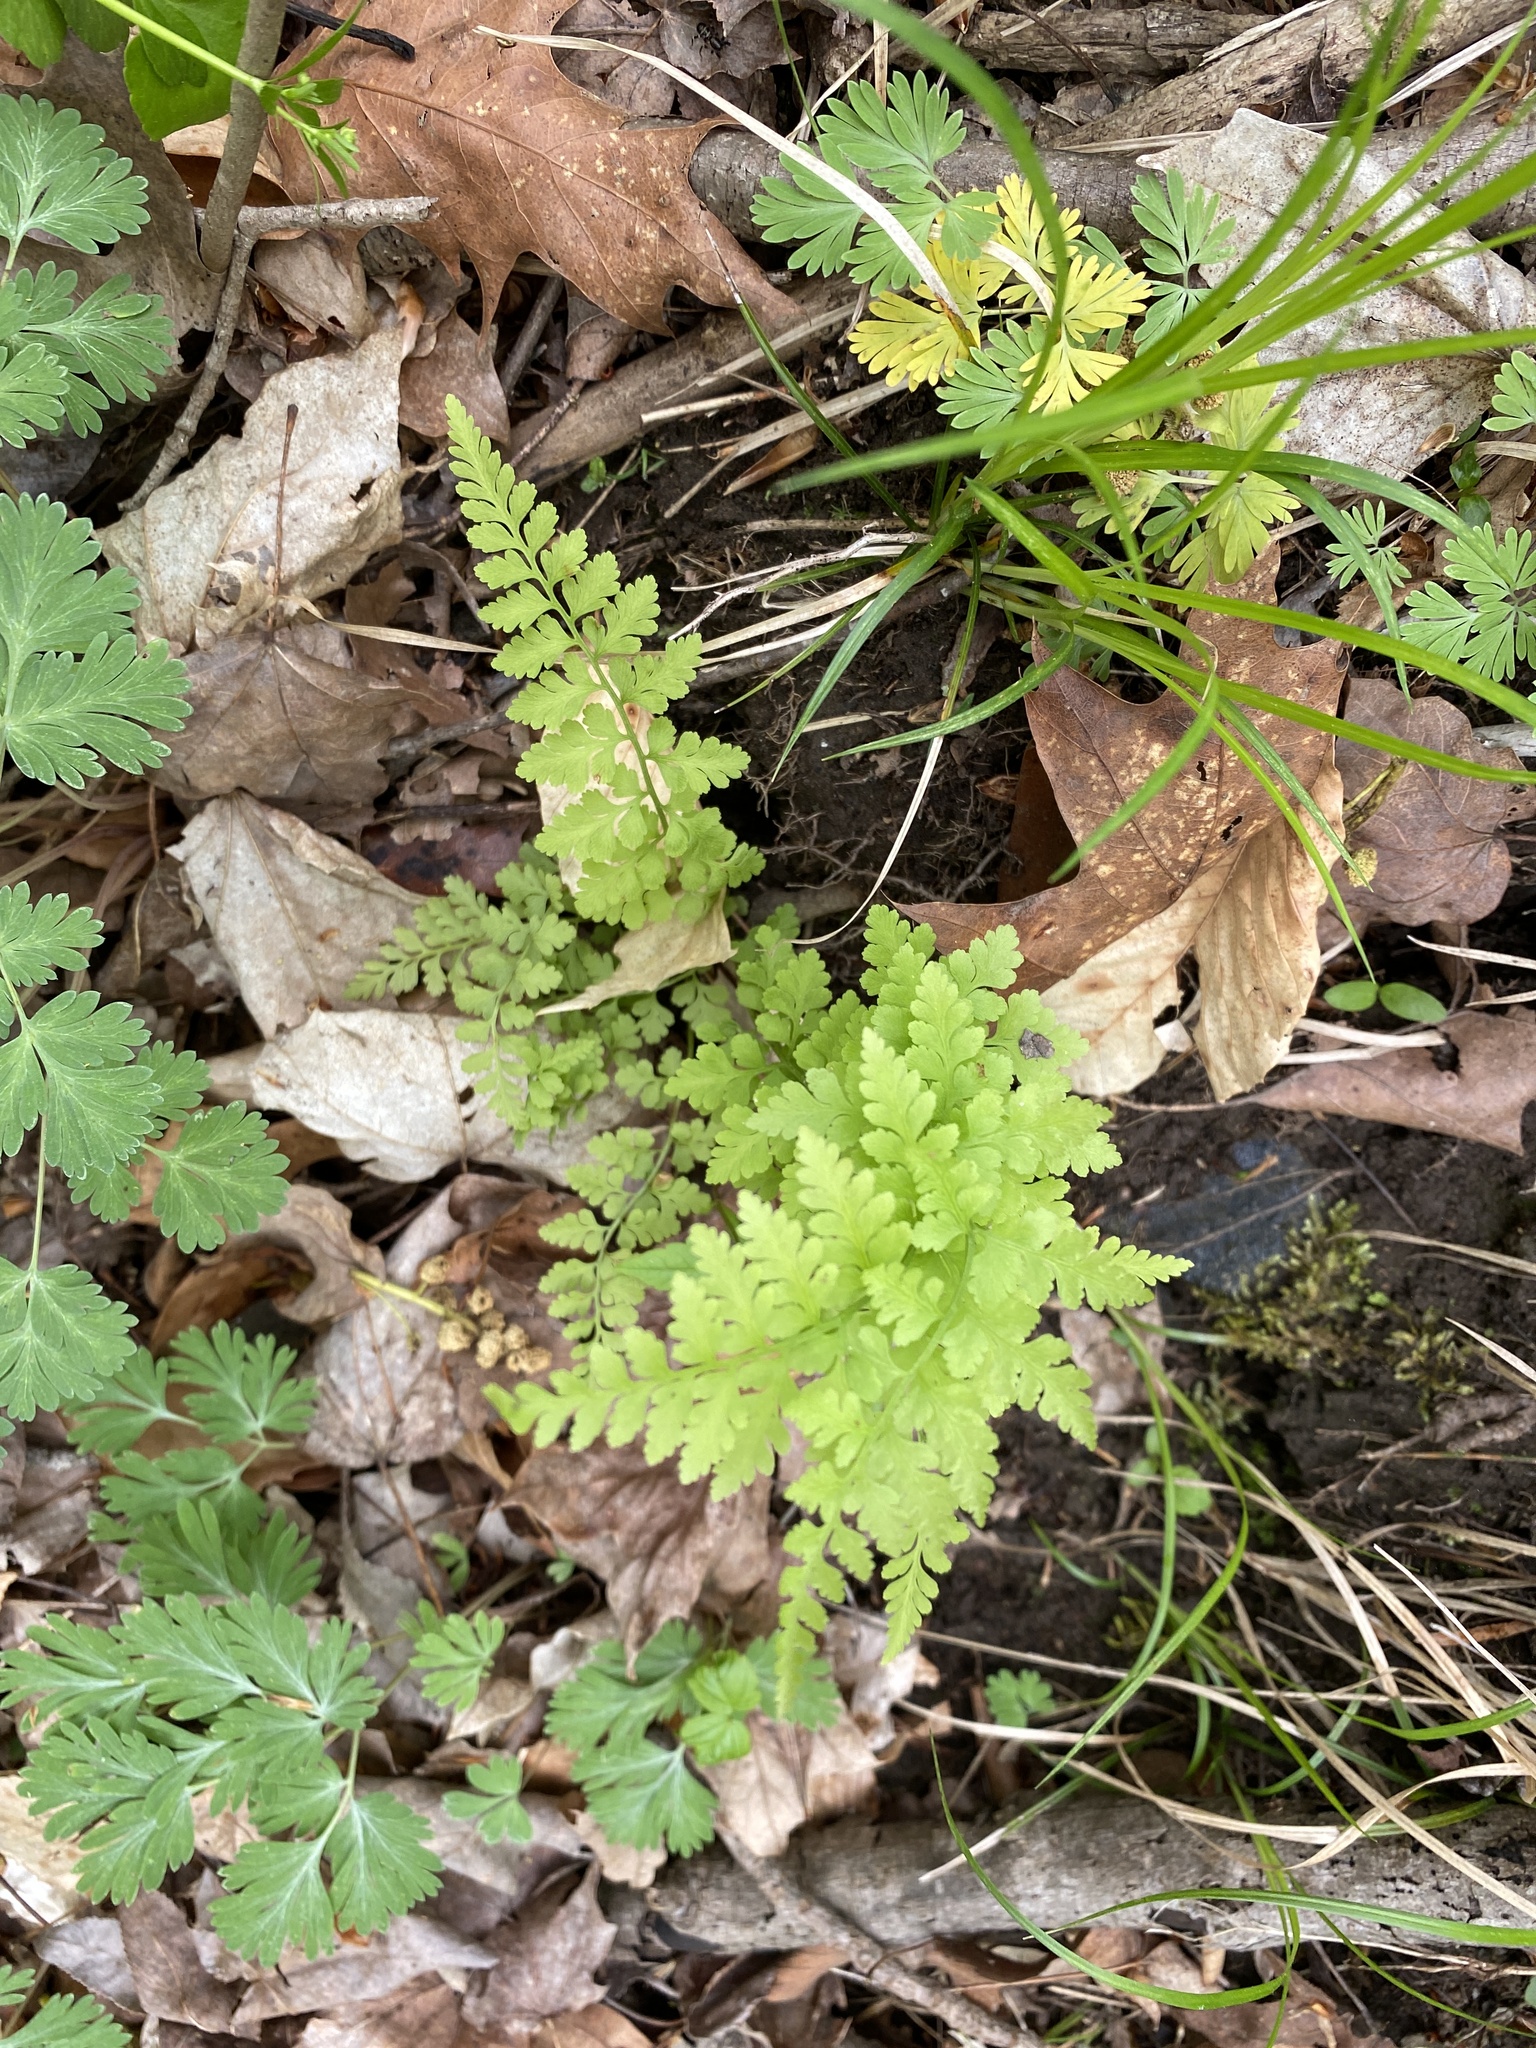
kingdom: Plantae
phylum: Tracheophyta
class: Polypodiopsida
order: Polypodiales
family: Cystopteridaceae
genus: Cystopteris
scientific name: Cystopteris protrusa
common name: Lowland brittle fern
